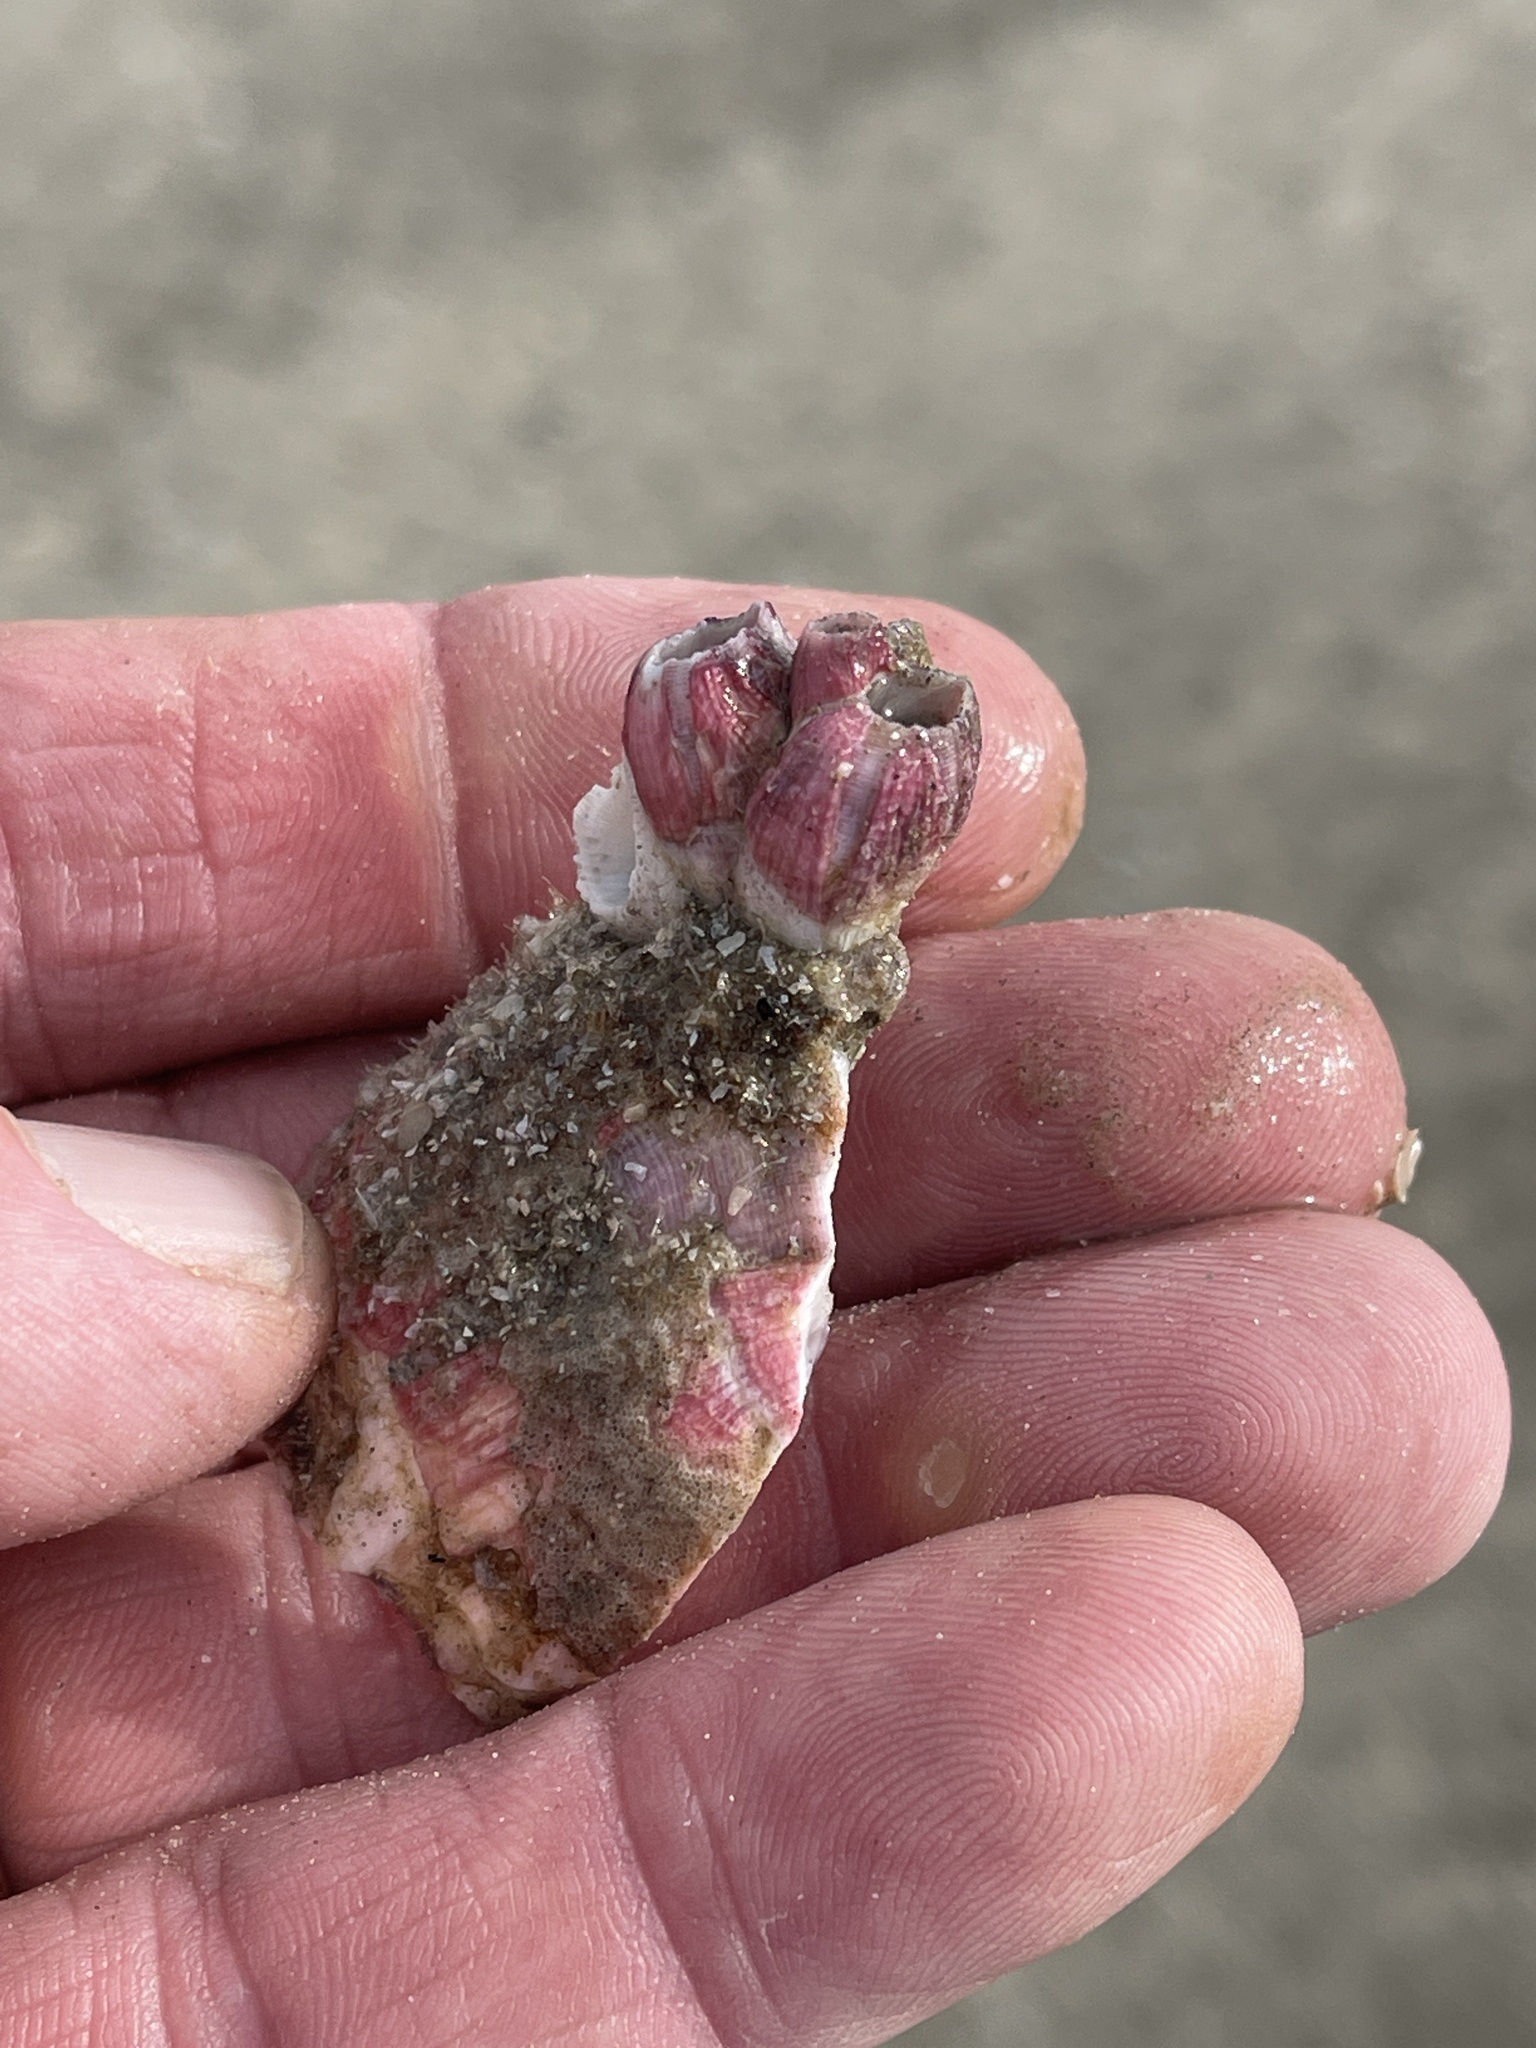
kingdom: Animalia
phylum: Arthropoda
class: Maxillopoda
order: Sessilia
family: Balanidae
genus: Megabalanus
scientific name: Megabalanus tintinnabulum
